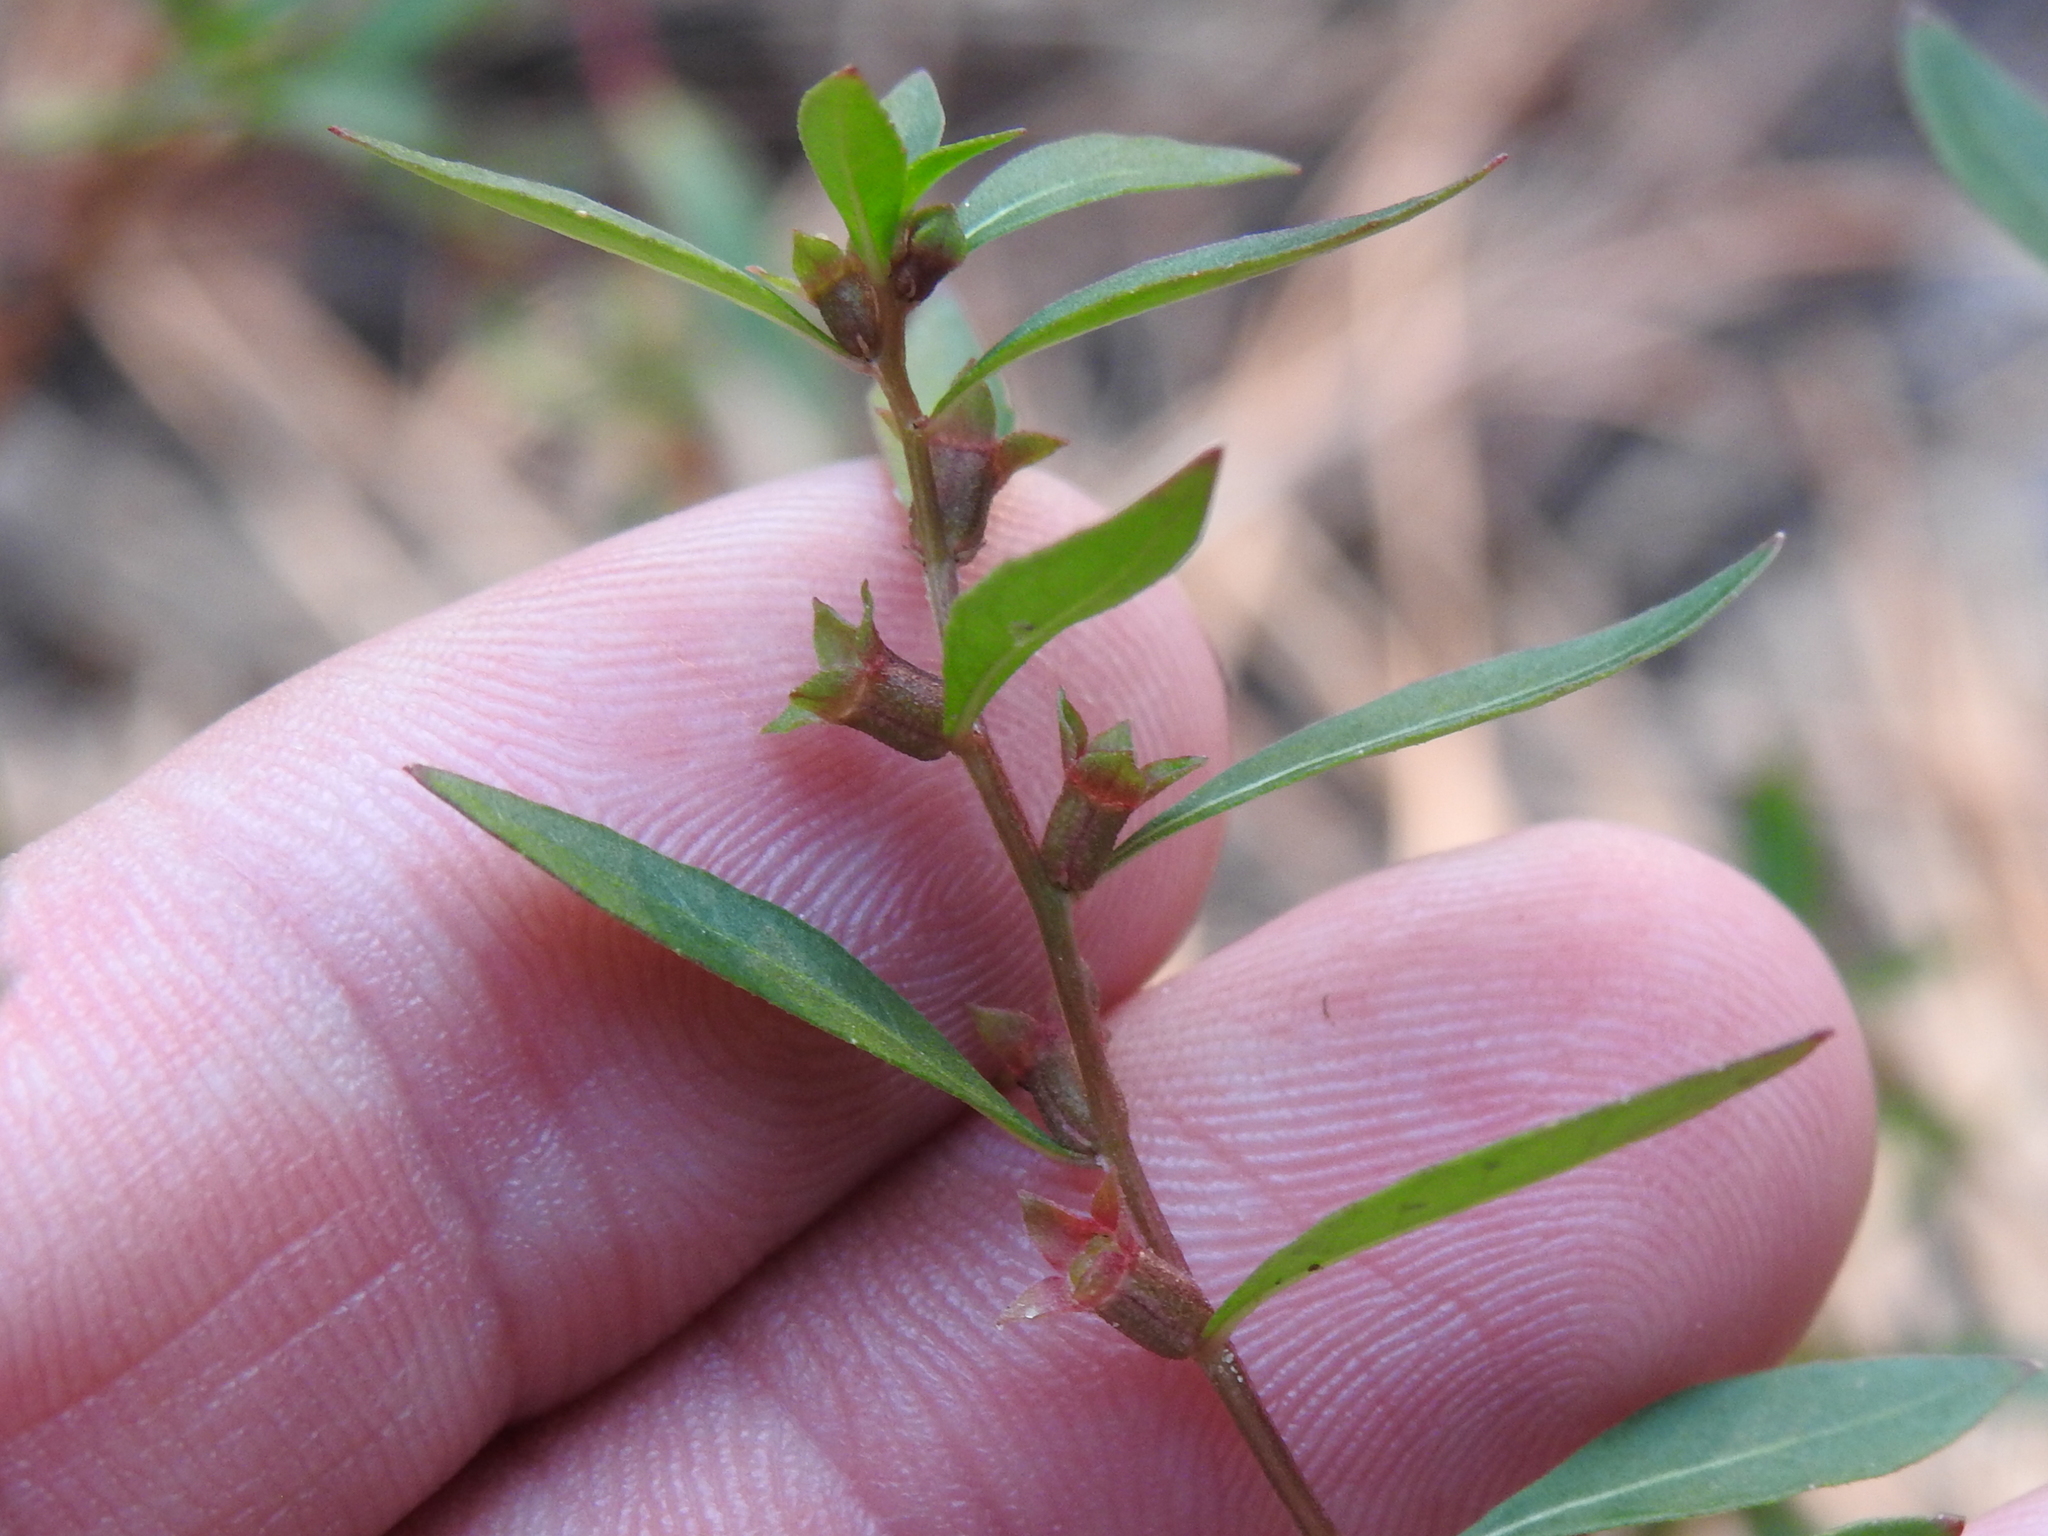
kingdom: Plantae
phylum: Tracheophyta
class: Magnoliopsida
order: Myrtales
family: Onagraceae
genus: Ludwigia
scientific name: Ludwigia glandulosa
